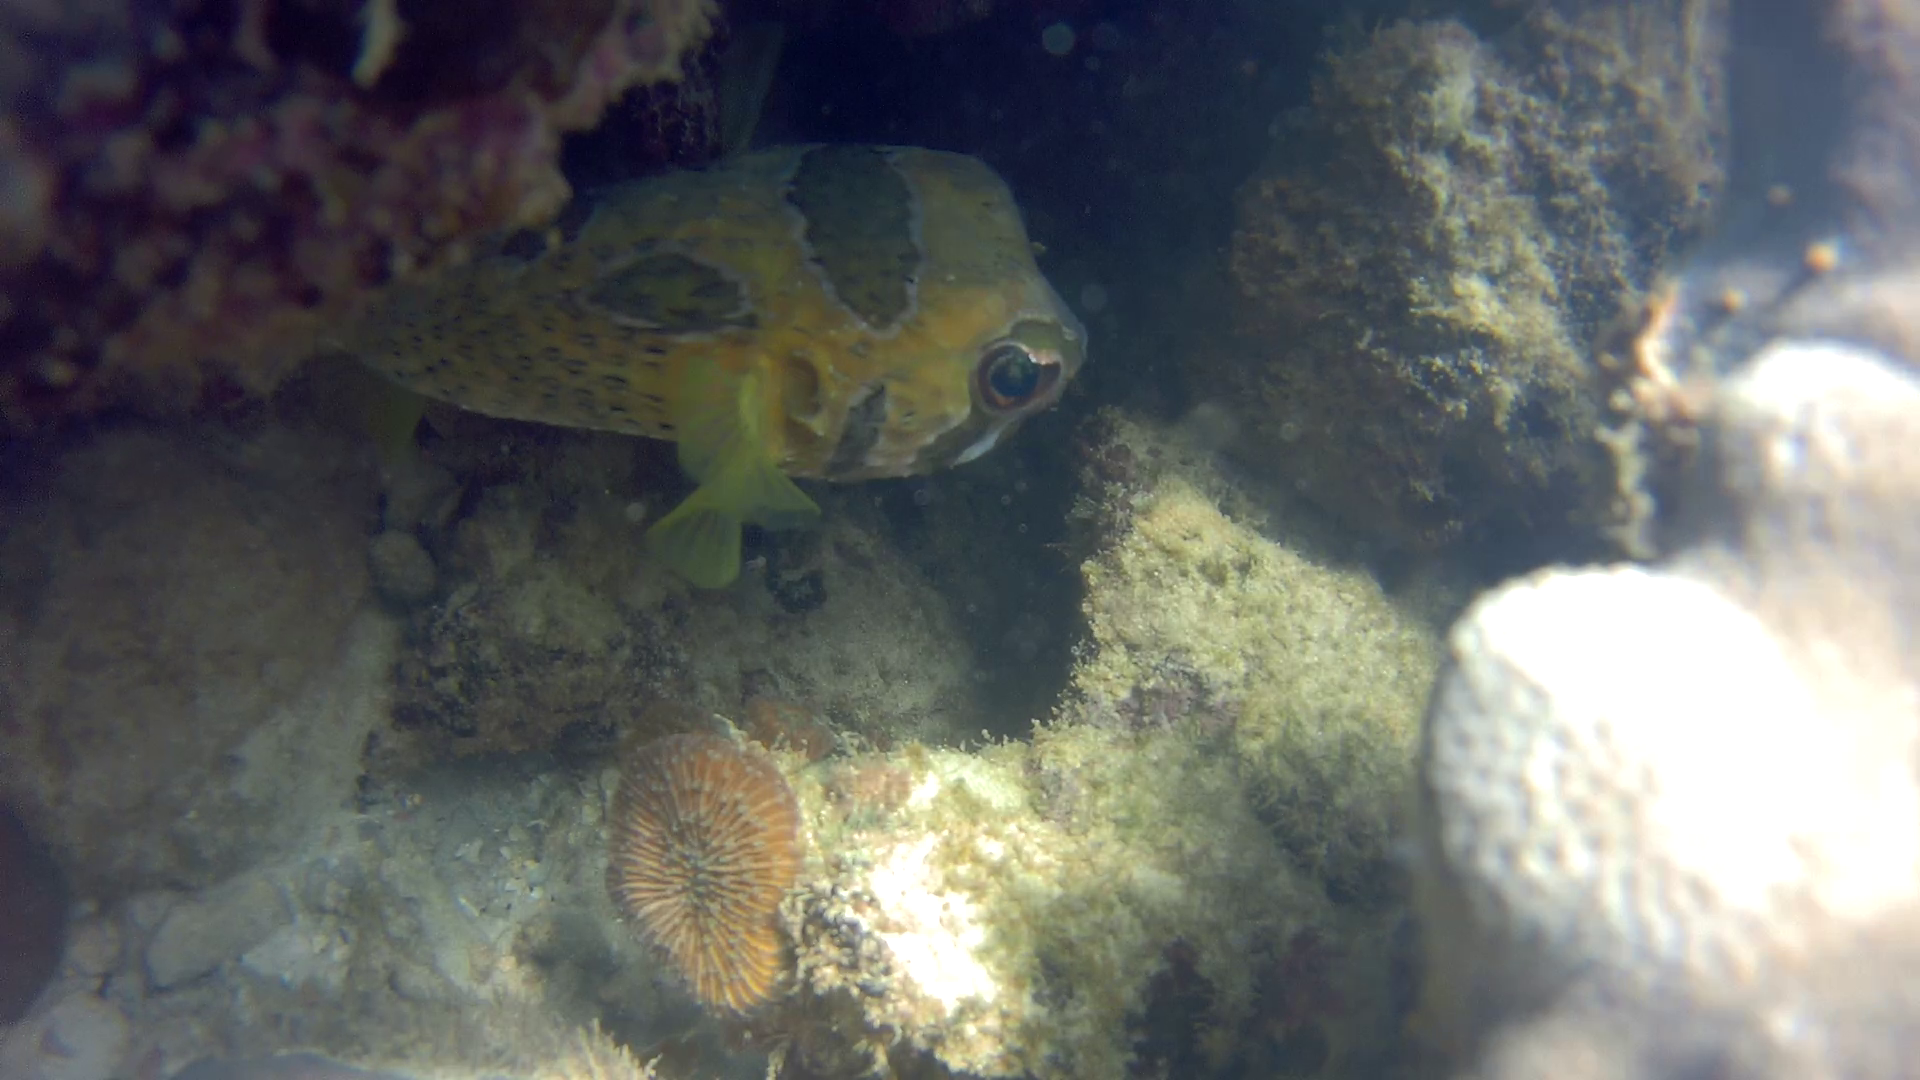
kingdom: Animalia
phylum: Chordata
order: Tetraodontiformes
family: Diodontidae
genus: Diodon
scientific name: Diodon liturosus
